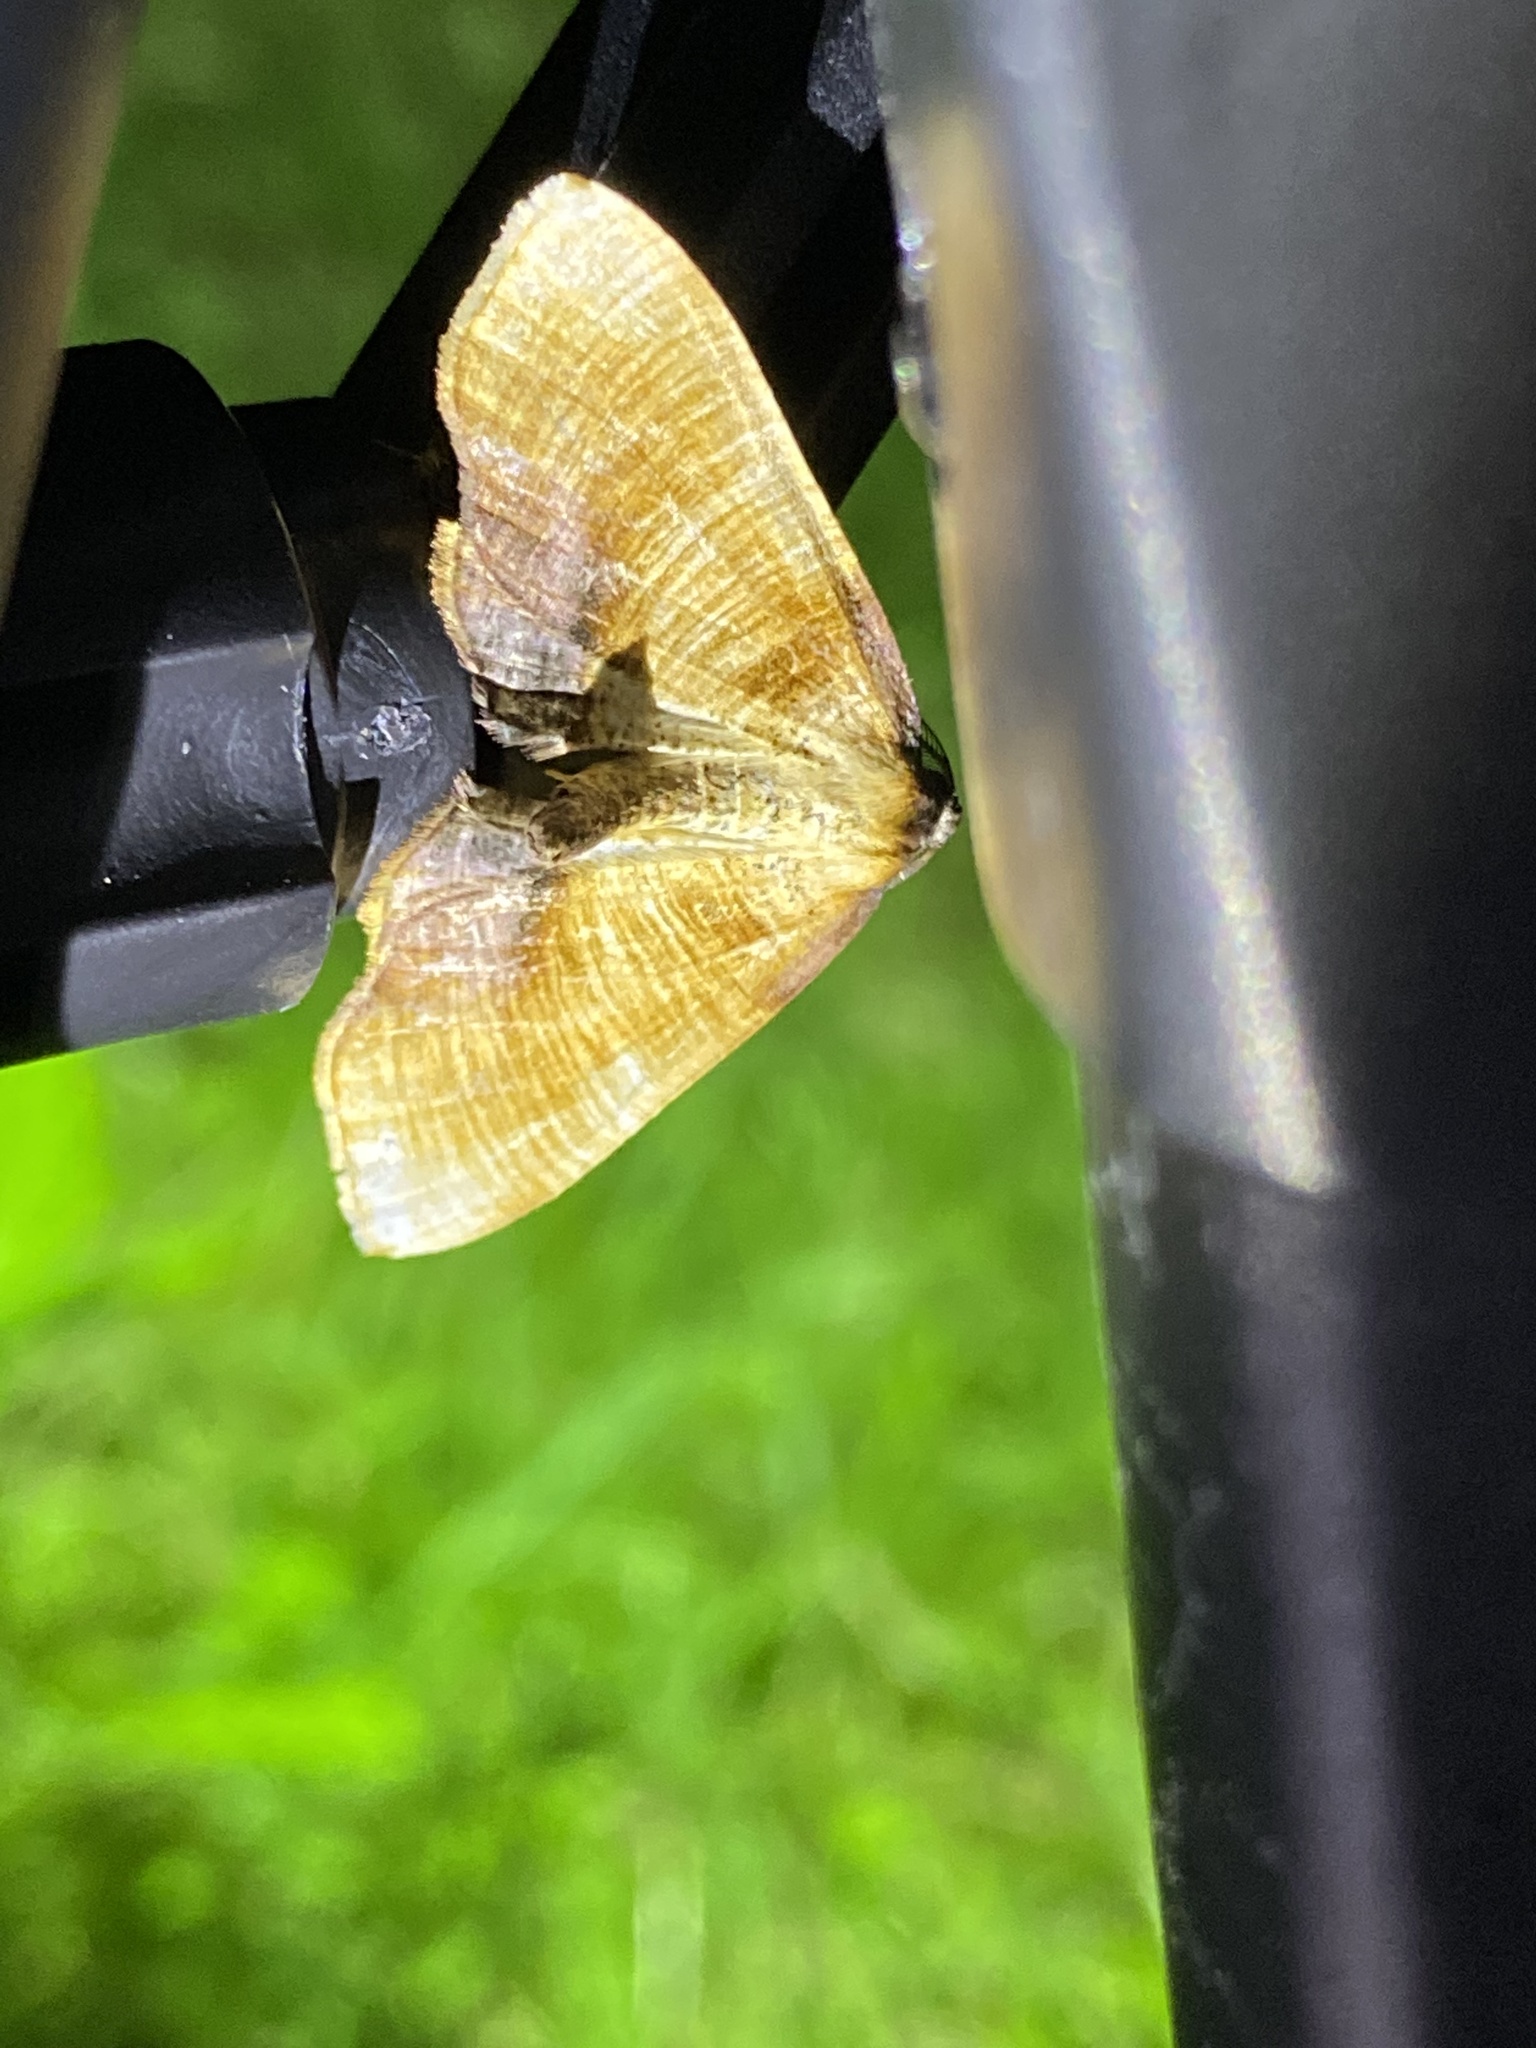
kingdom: Animalia
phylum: Arthropoda
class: Insecta
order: Lepidoptera
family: Geometridae
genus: Plagodis
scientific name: Plagodis dolabraria
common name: Scorched wing
